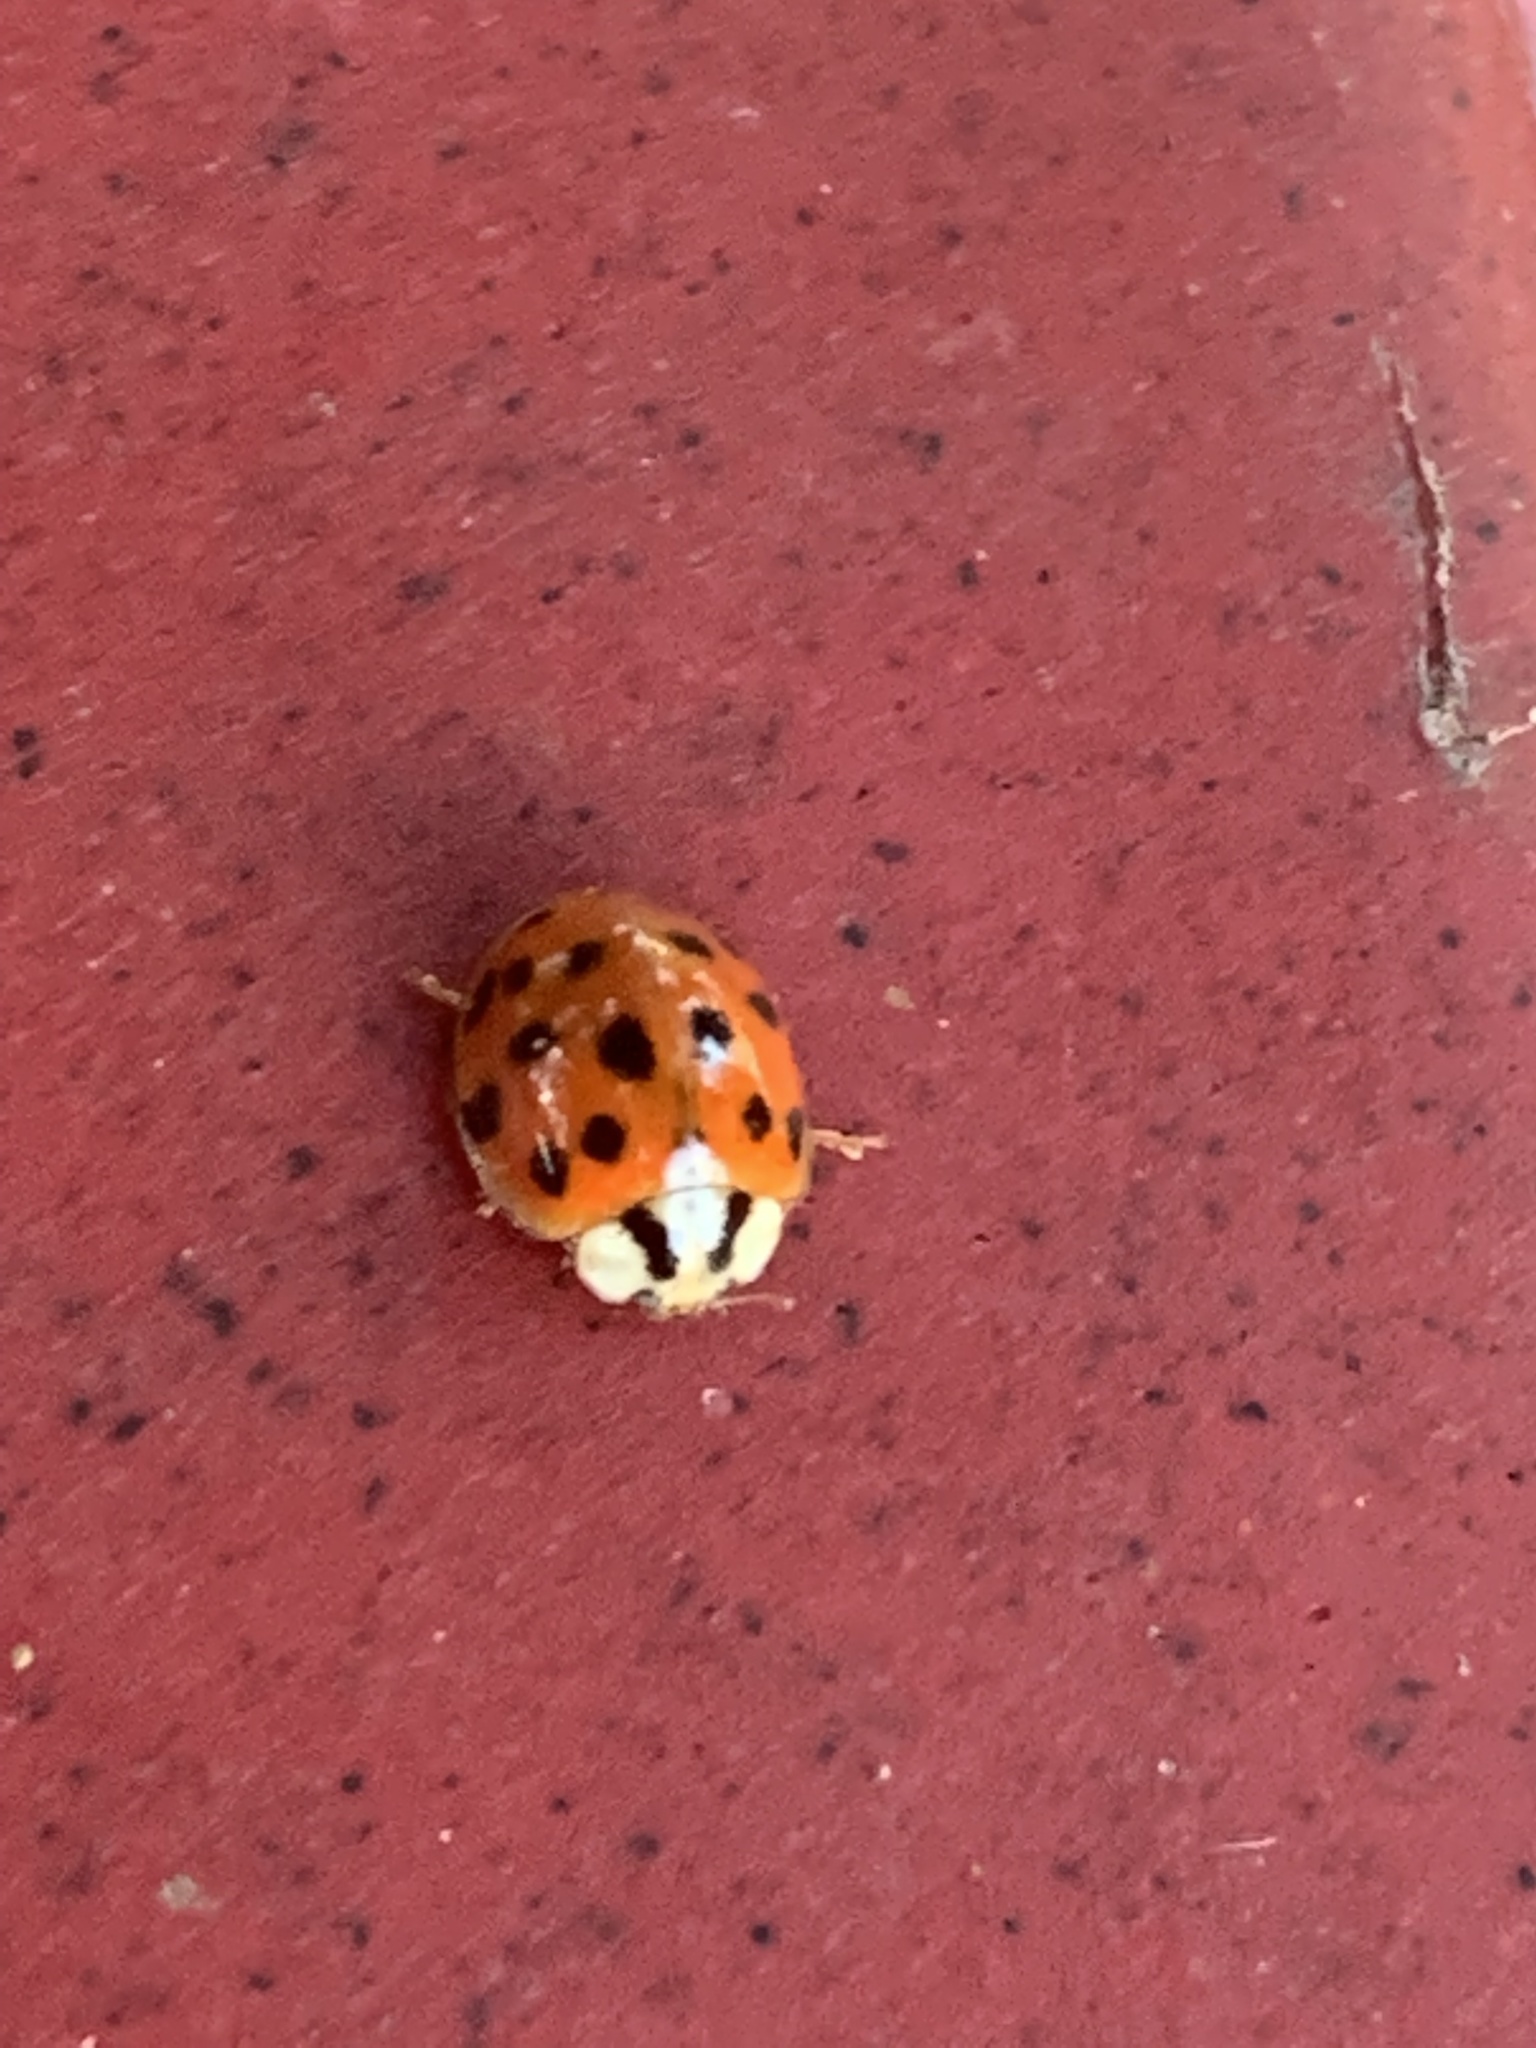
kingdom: Animalia
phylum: Arthropoda
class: Insecta
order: Coleoptera
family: Coccinellidae
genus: Harmonia
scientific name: Harmonia axyridis
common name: Harlequin ladybird
